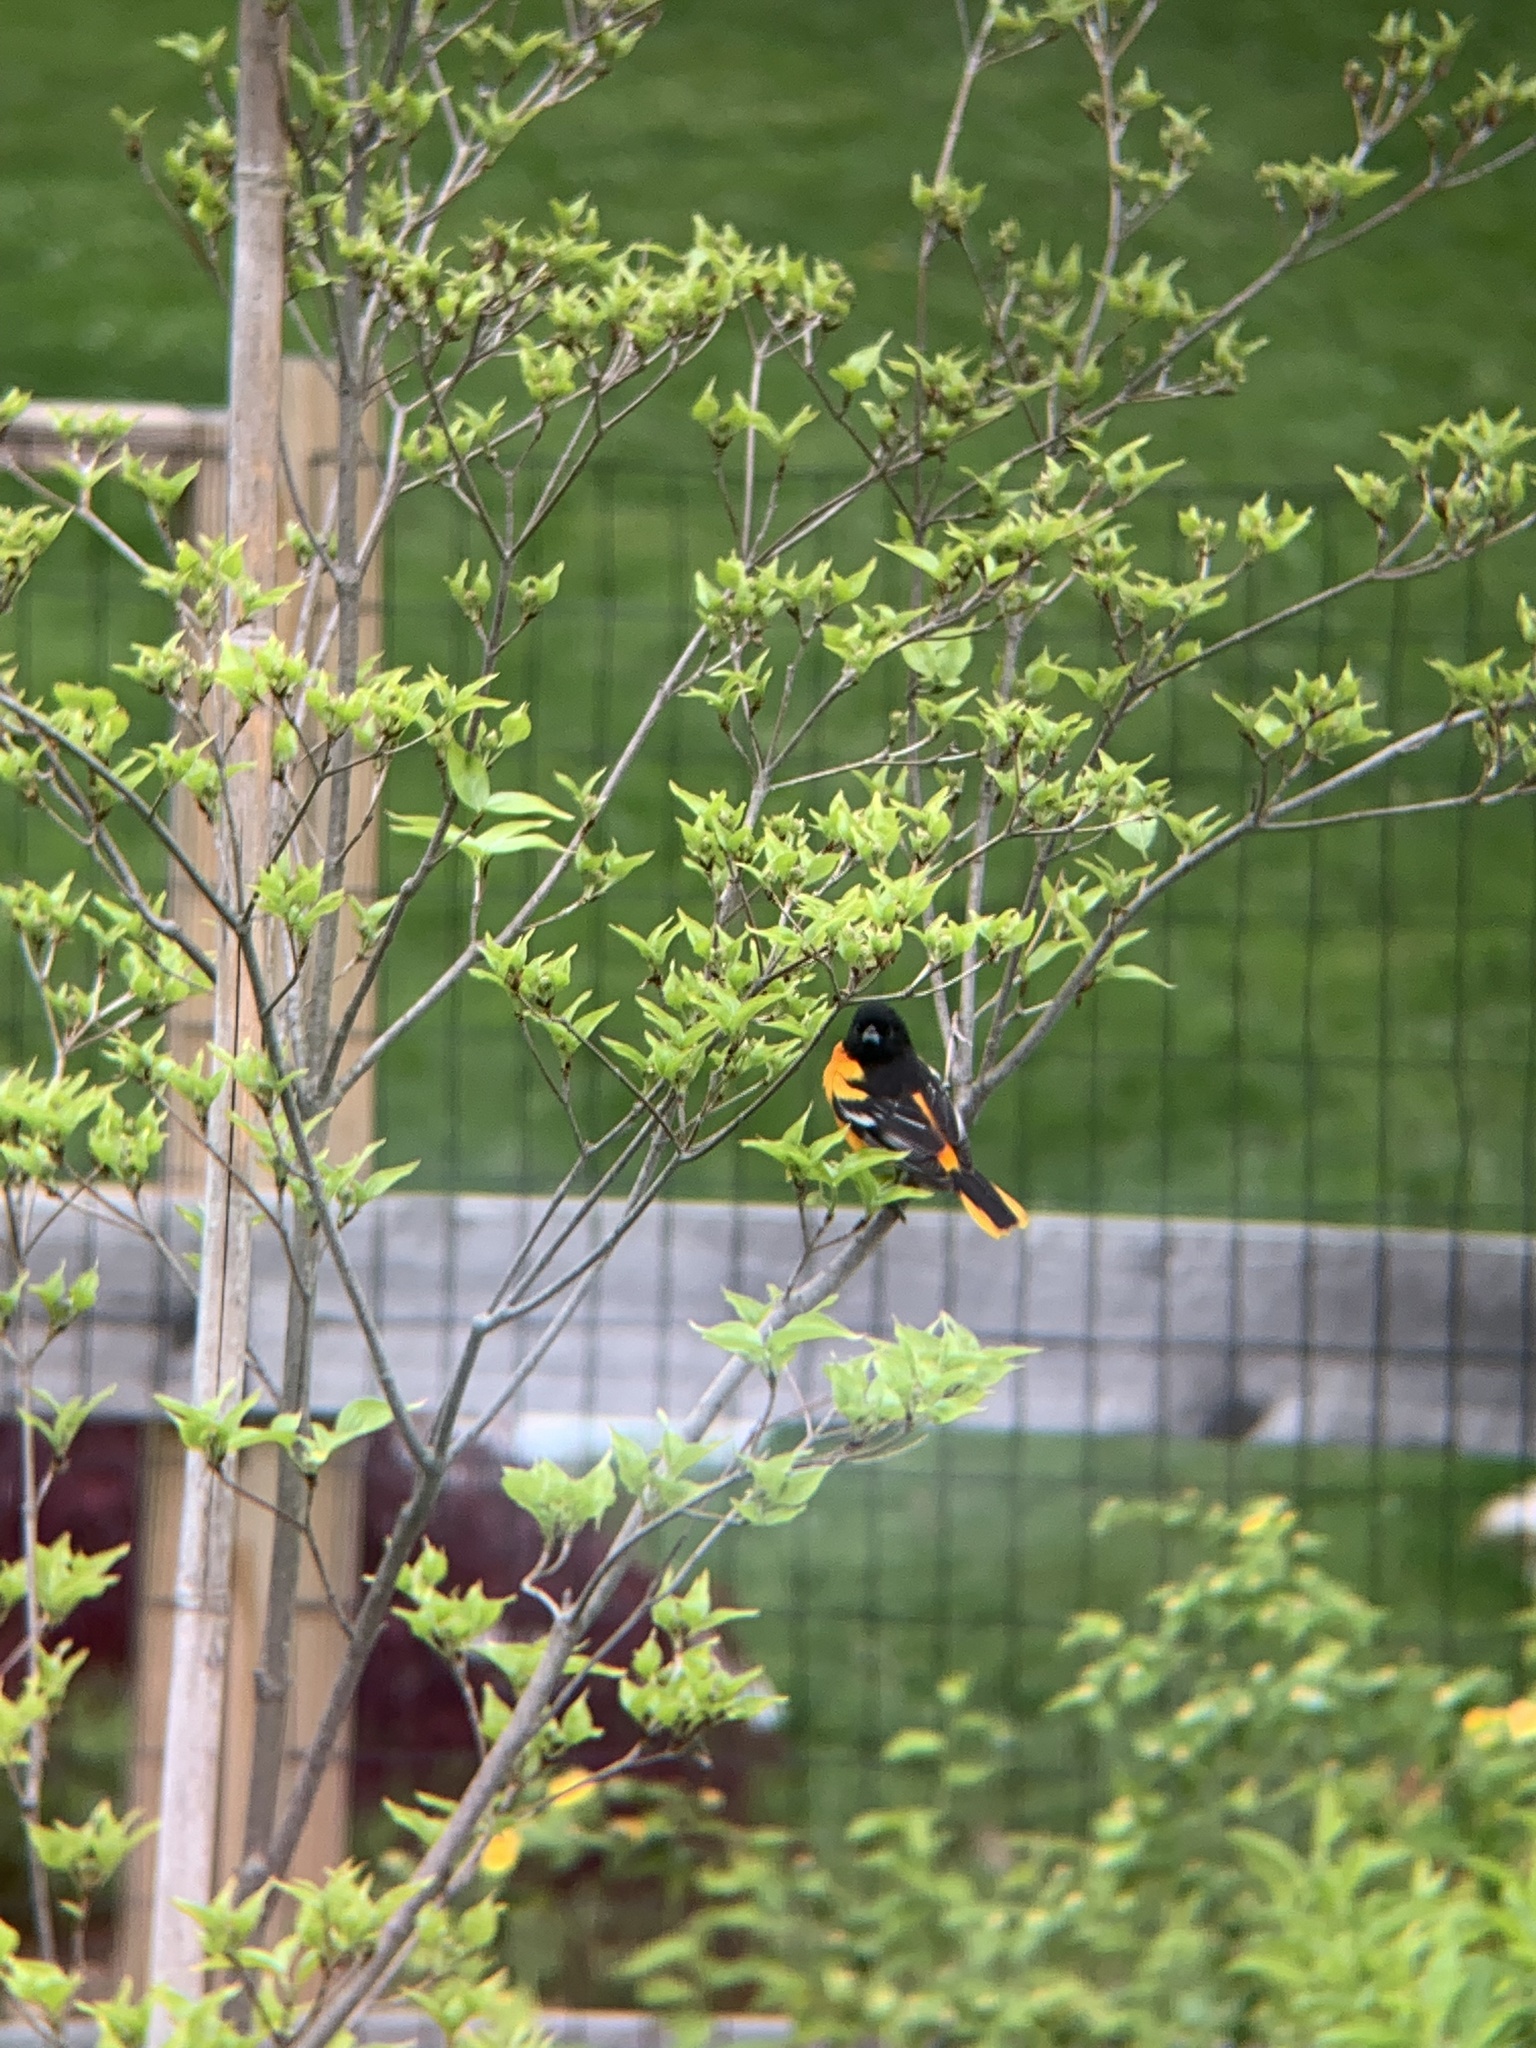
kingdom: Animalia
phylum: Chordata
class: Aves
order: Passeriformes
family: Icteridae
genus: Icterus
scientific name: Icterus galbula
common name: Baltimore oriole
